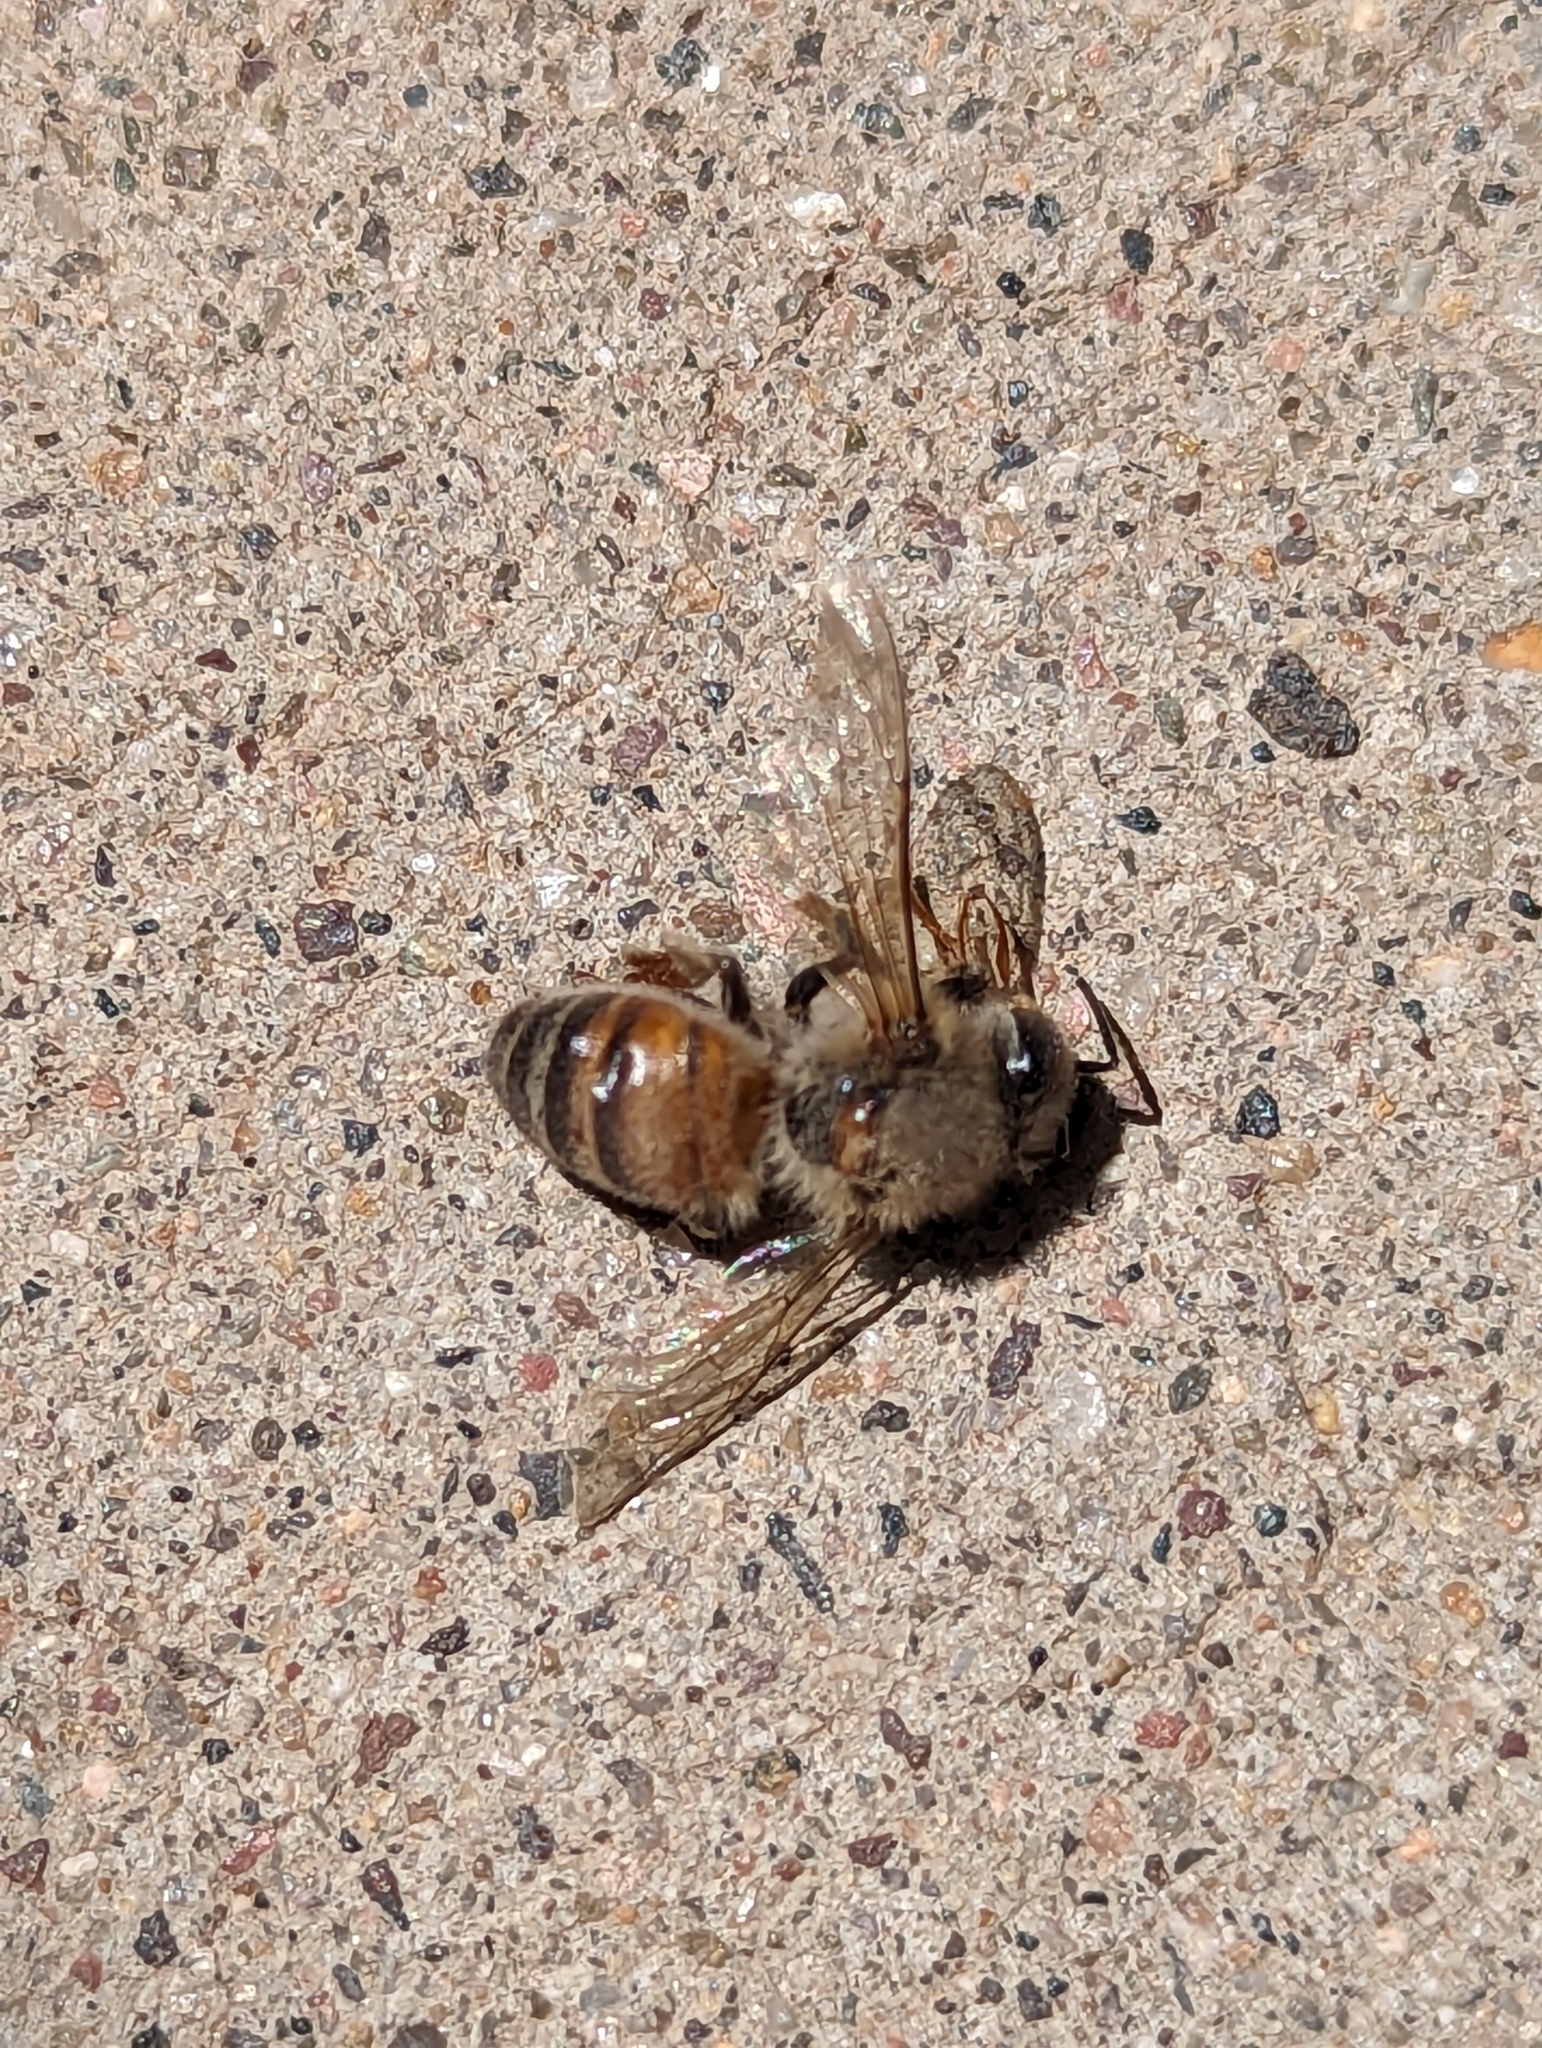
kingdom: Animalia
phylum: Arthropoda
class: Insecta
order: Hymenoptera
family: Apidae
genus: Apis
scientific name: Apis mellifera
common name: Honey bee
